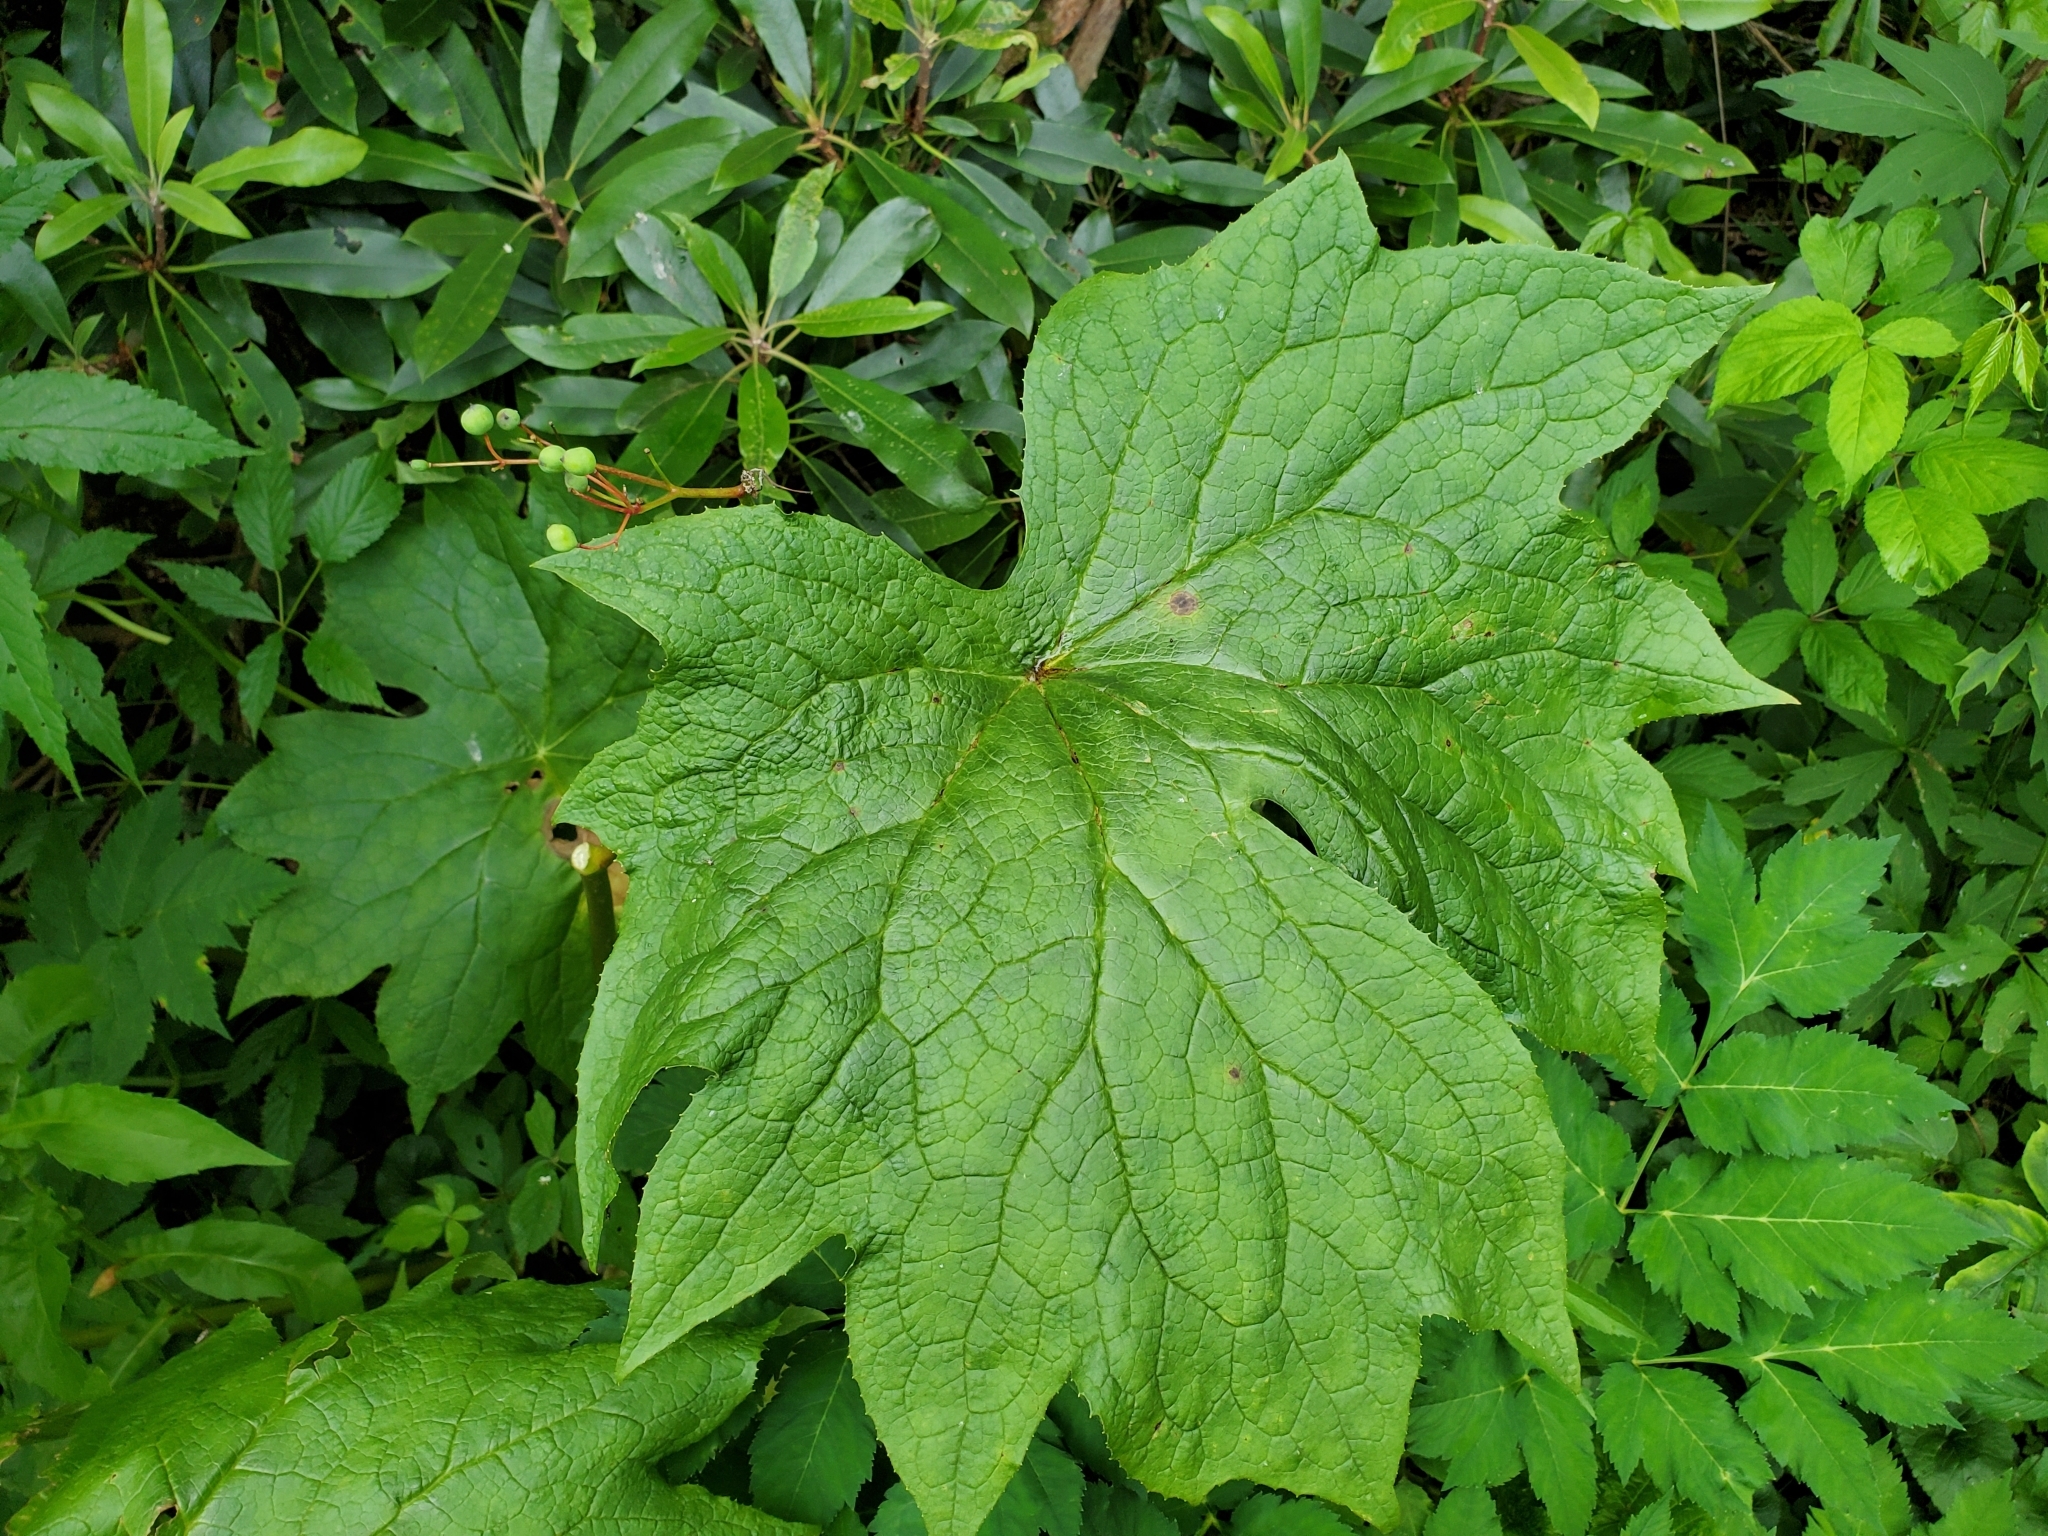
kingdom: Plantae
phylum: Tracheophyta
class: Magnoliopsida
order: Ranunculales
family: Berberidaceae
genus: Diphylleia
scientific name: Diphylleia cymosa
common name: Umbrella-leaf
